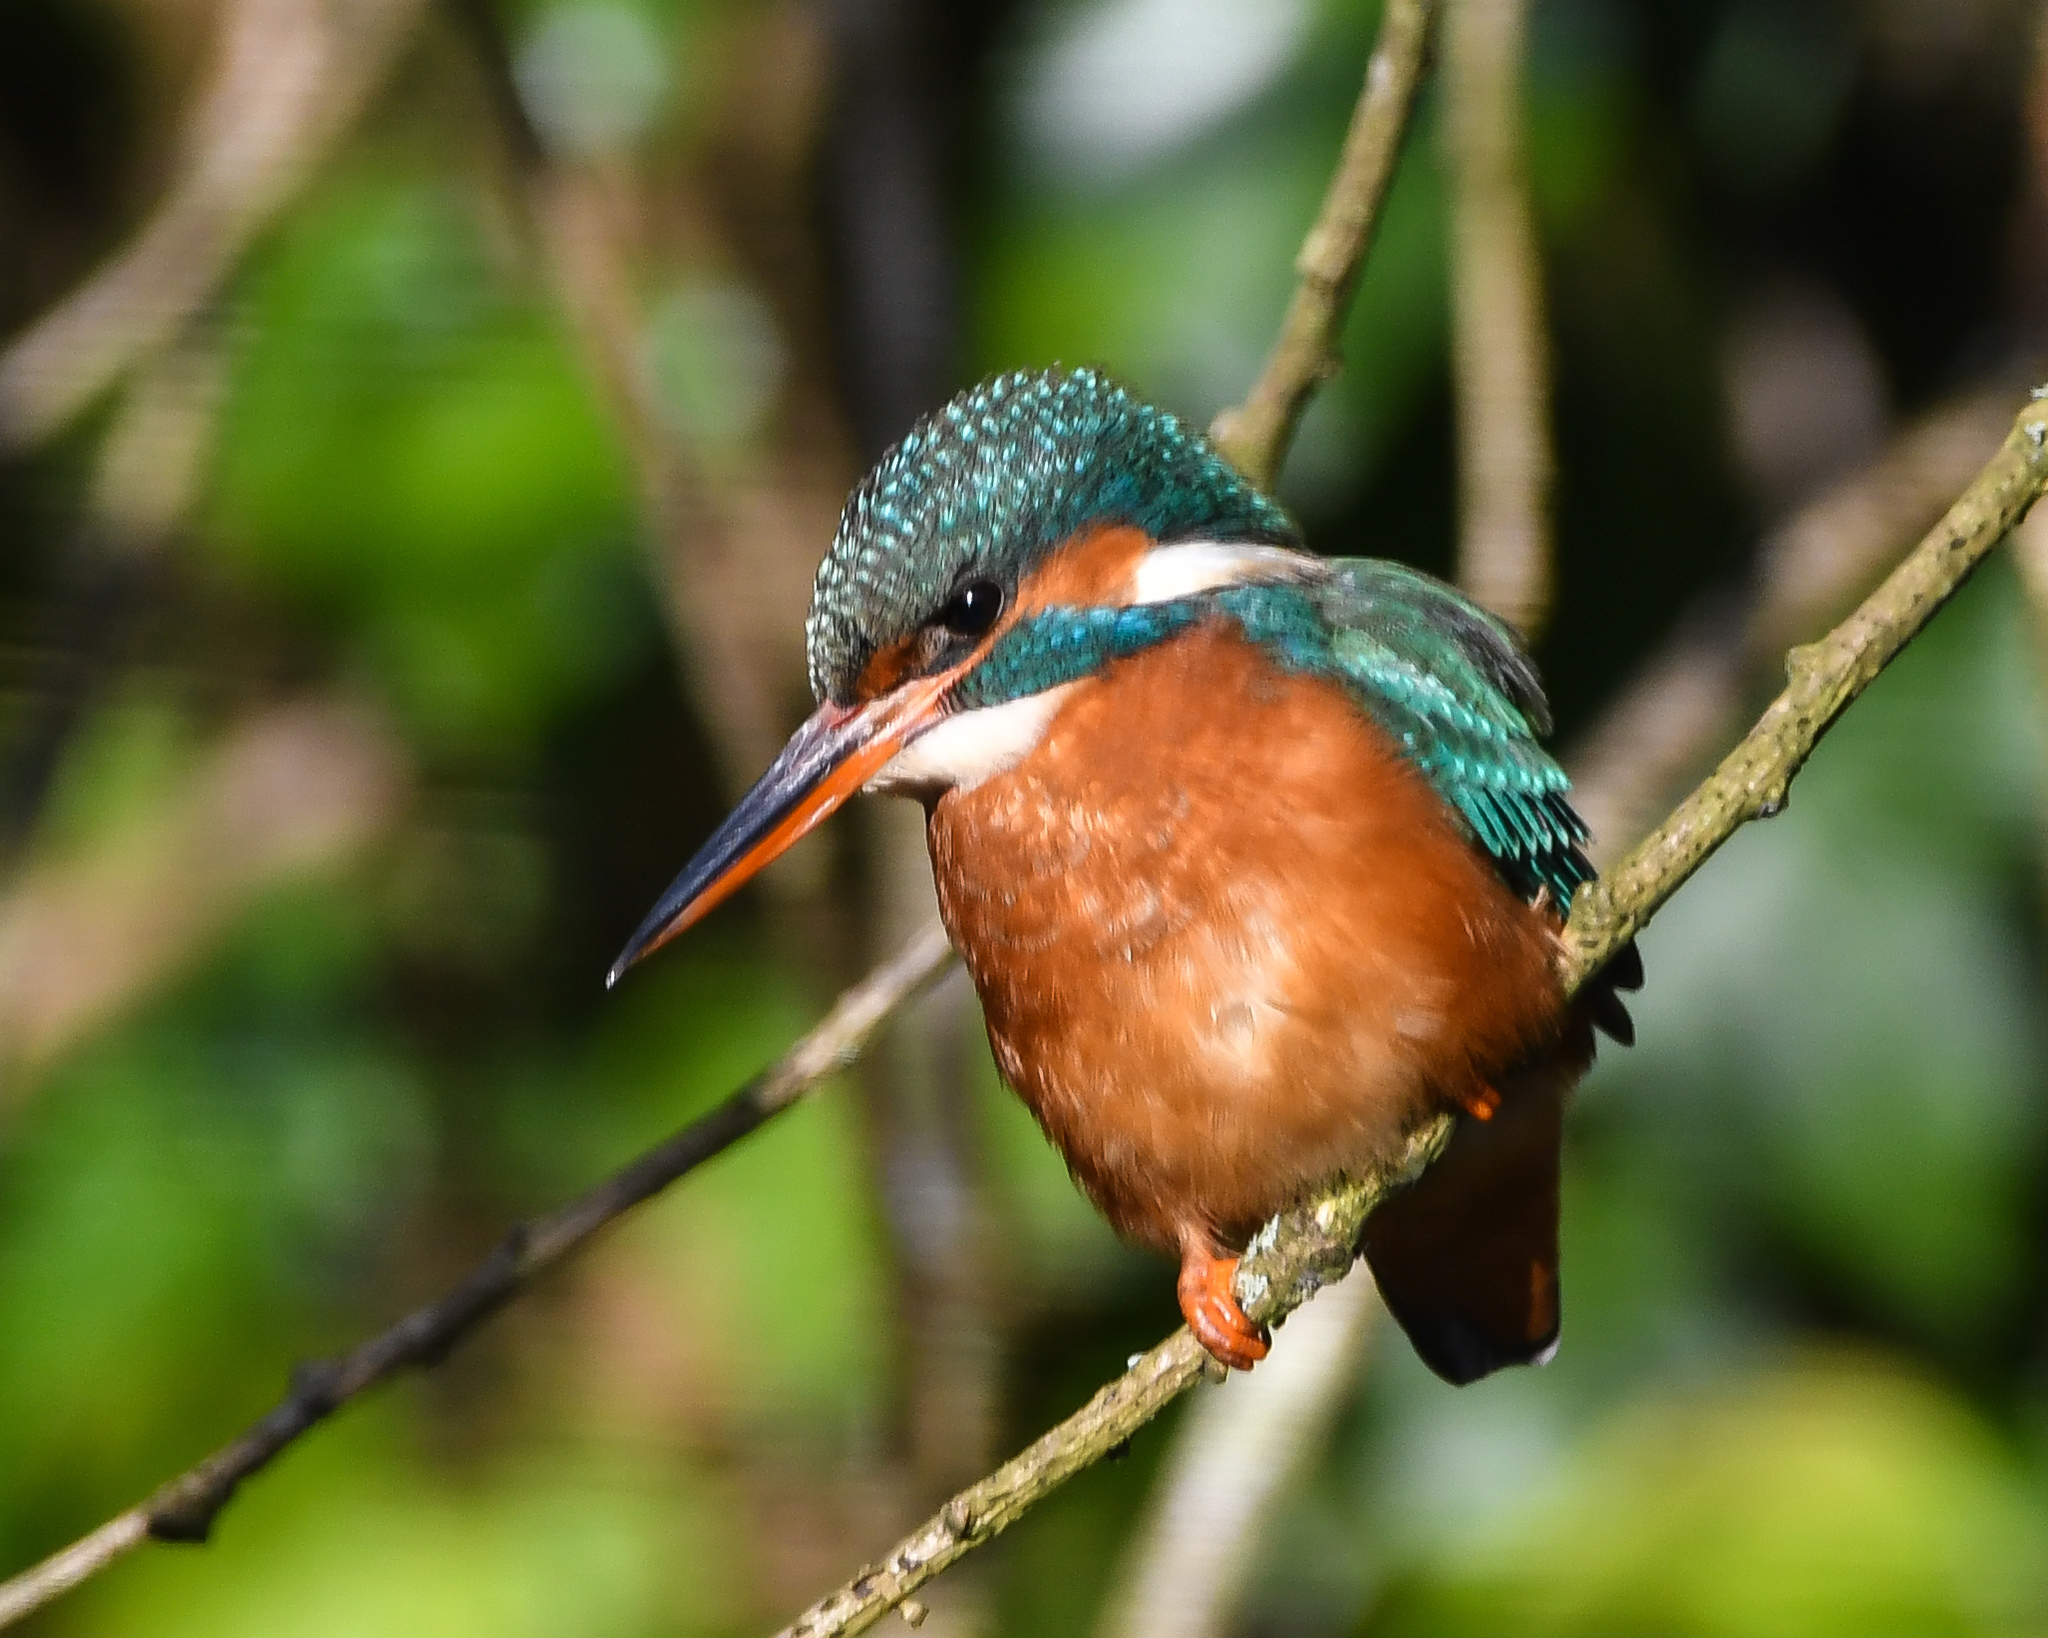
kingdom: Animalia
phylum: Chordata
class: Aves
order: Coraciiformes
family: Alcedinidae
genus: Alcedo
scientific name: Alcedo atthis
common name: Common kingfisher
